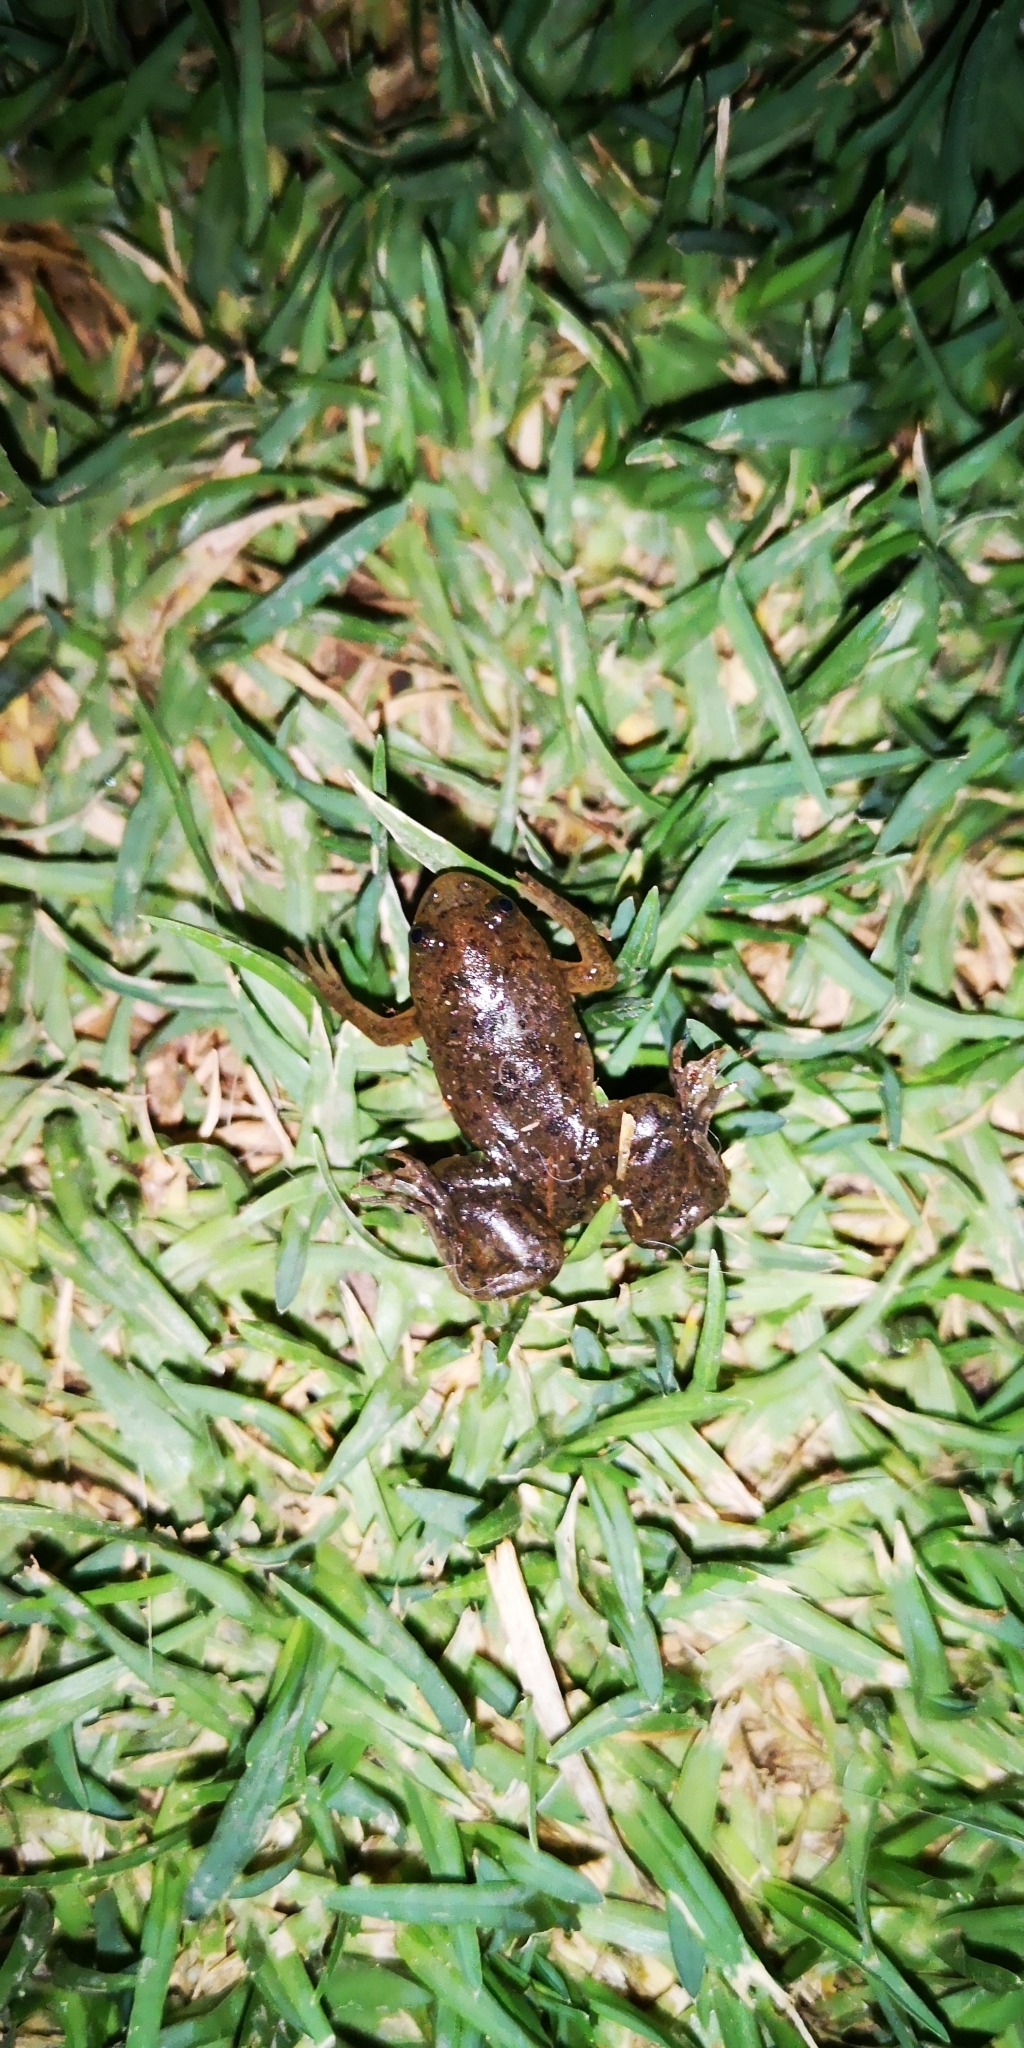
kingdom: Animalia
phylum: Chordata
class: Amphibia
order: Anura
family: Pipidae
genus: Xenopus
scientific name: Xenopus laevis
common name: African clawed frog
